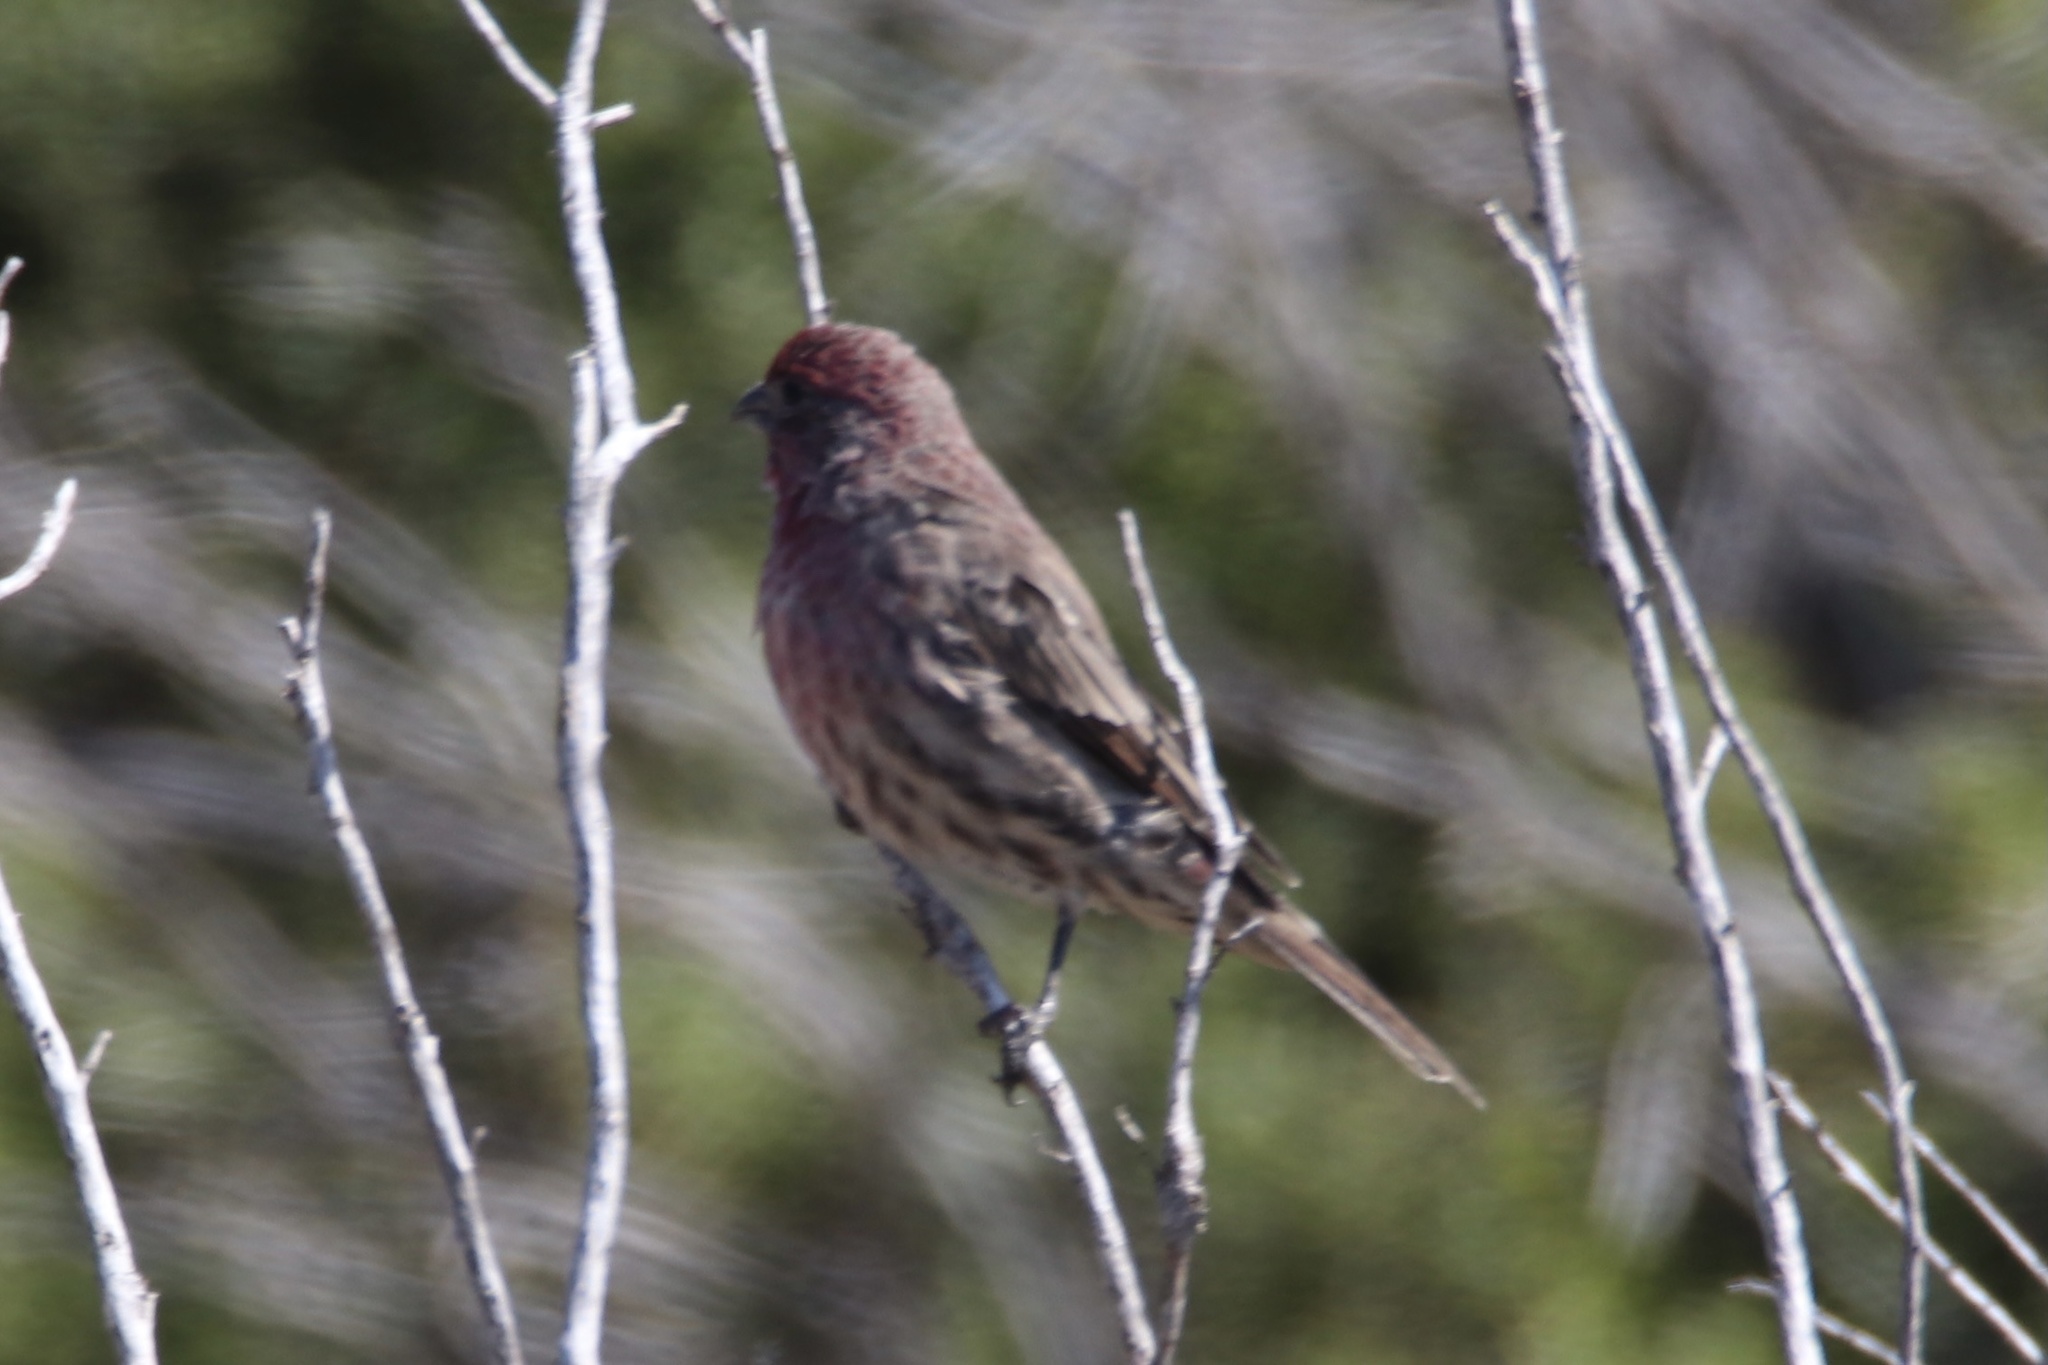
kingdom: Animalia
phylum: Chordata
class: Aves
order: Passeriformes
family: Fringillidae
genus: Haemorhous
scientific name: Haemorhous mexicanus
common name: House finch
